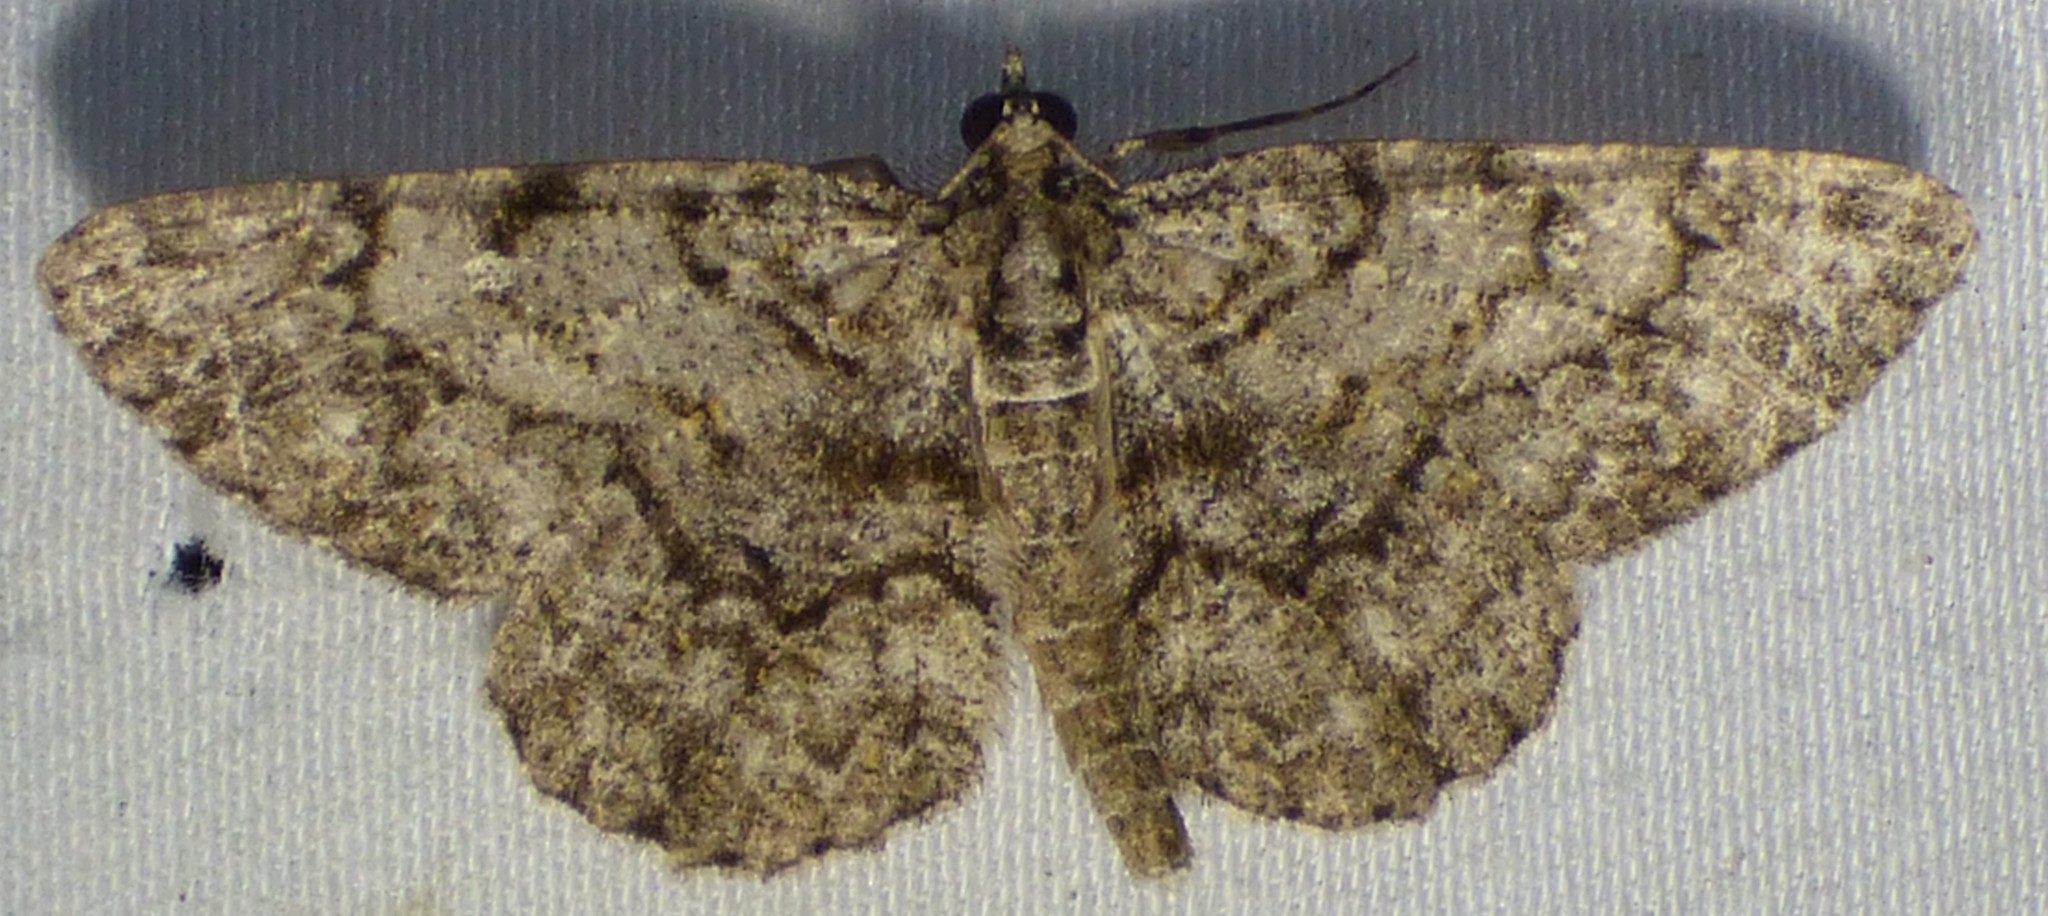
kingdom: Animalia
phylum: Arthropoda
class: Insecta
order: Lepidoptera
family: Geometridae
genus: Protoboarmia
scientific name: Protoboarmia porcelaria
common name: Porcelain gray
